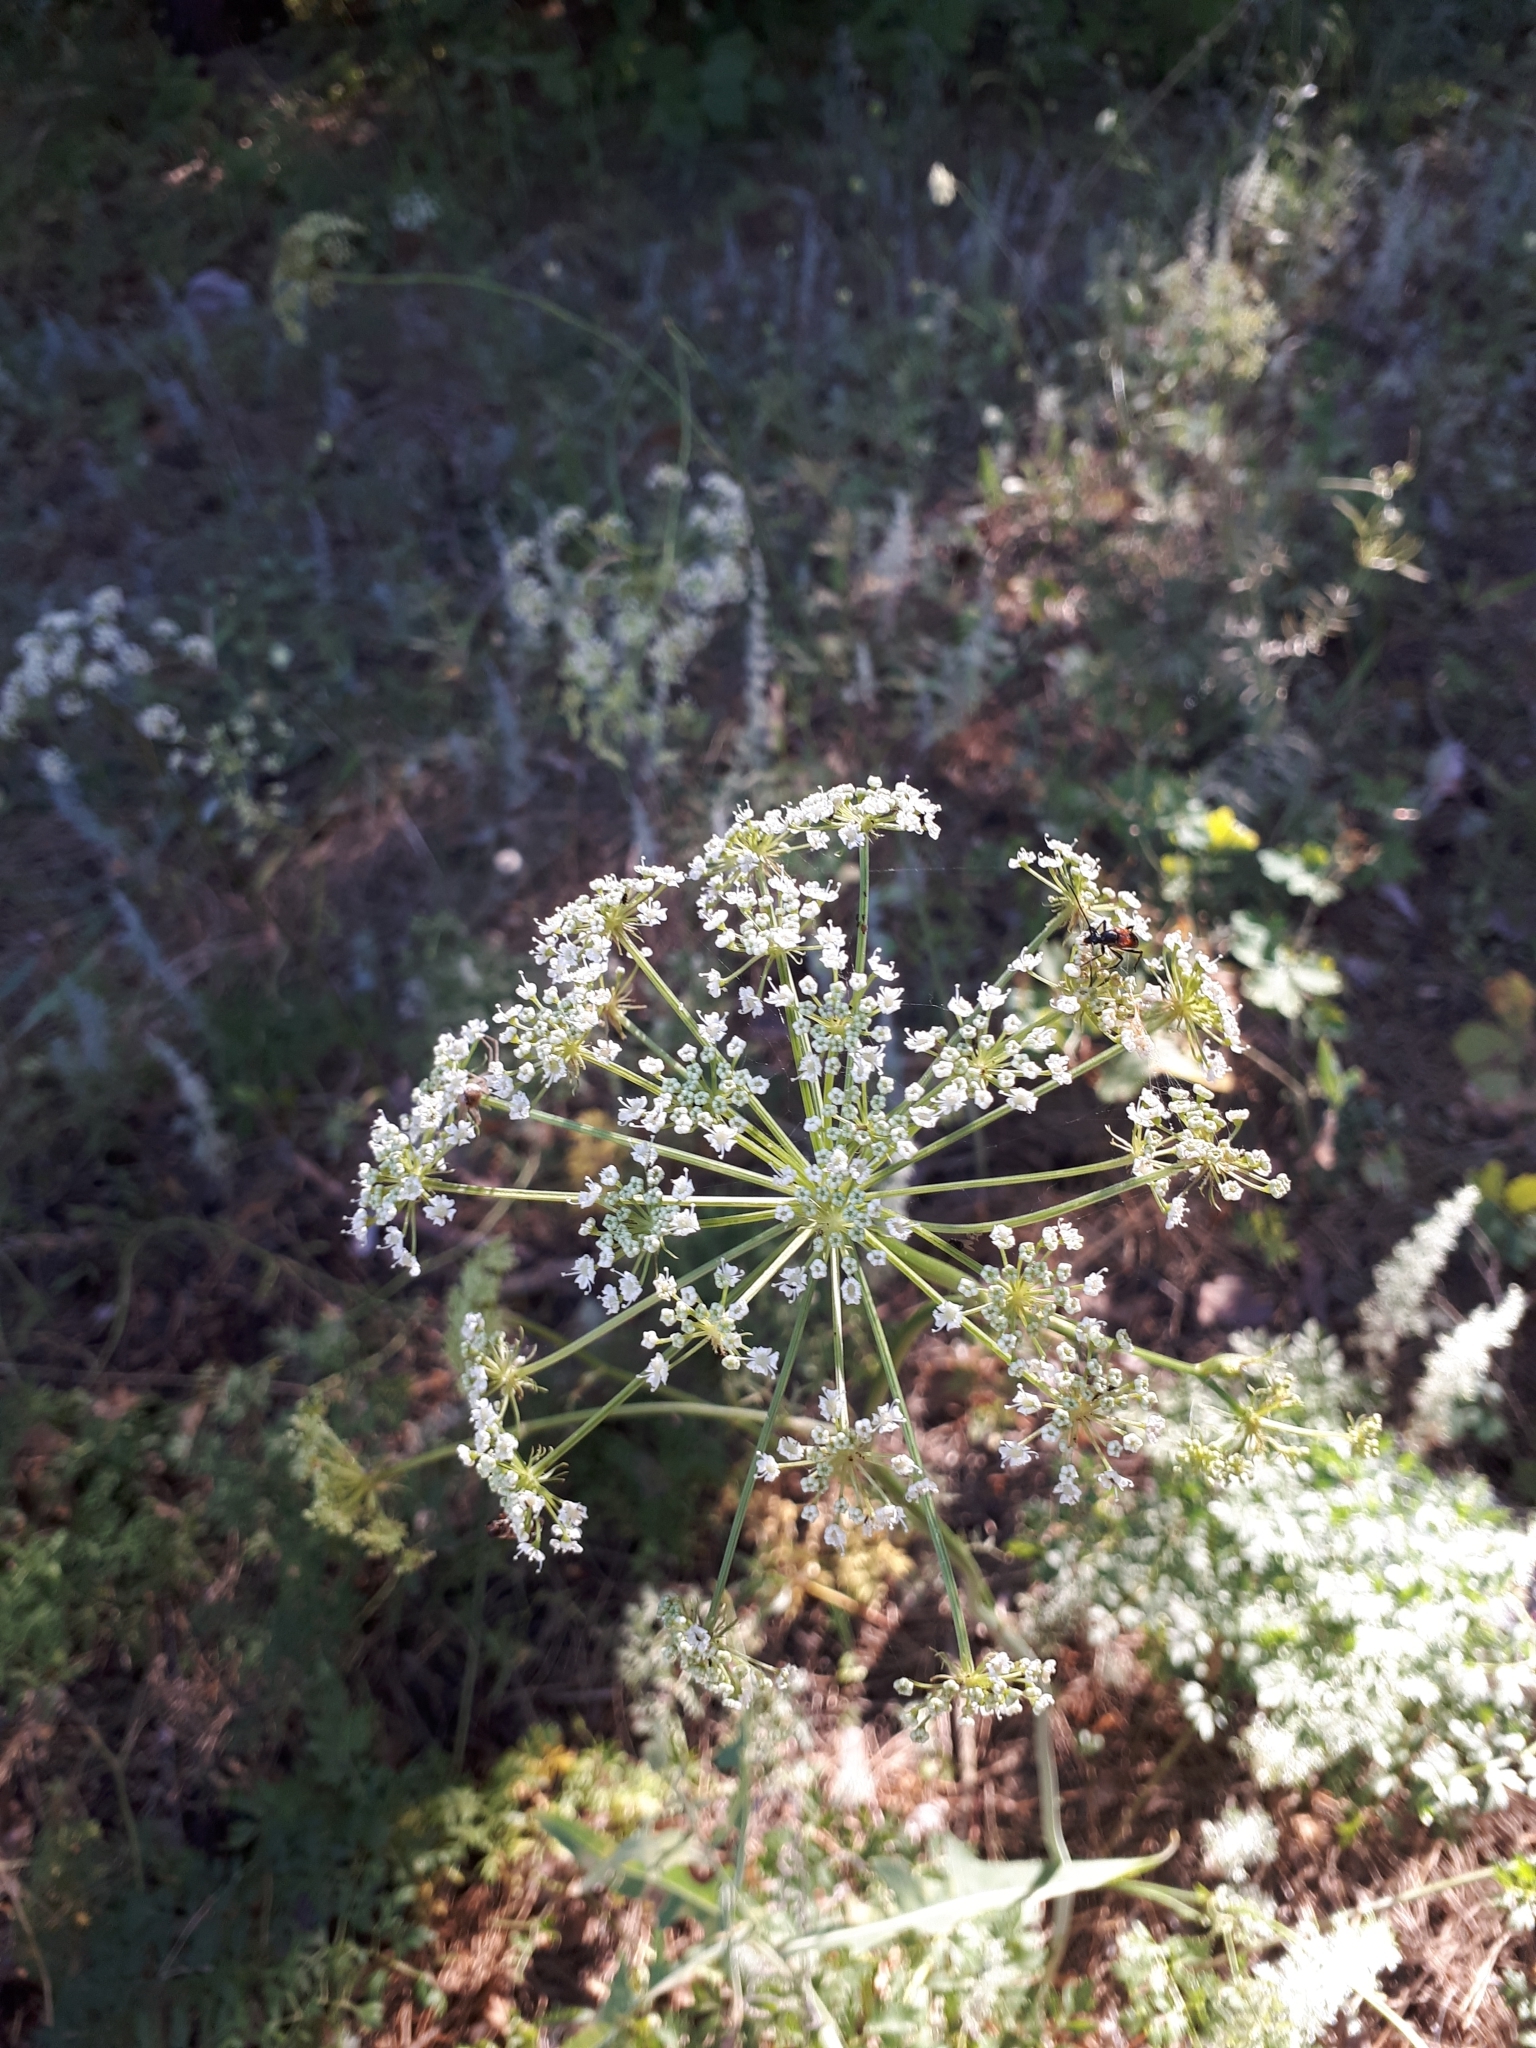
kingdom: Plantae
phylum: Tracheophyta
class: Magnoliopsida
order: Apiales
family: Apiaceae
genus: Oreoselinum
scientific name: Oreoselinum nigrum
